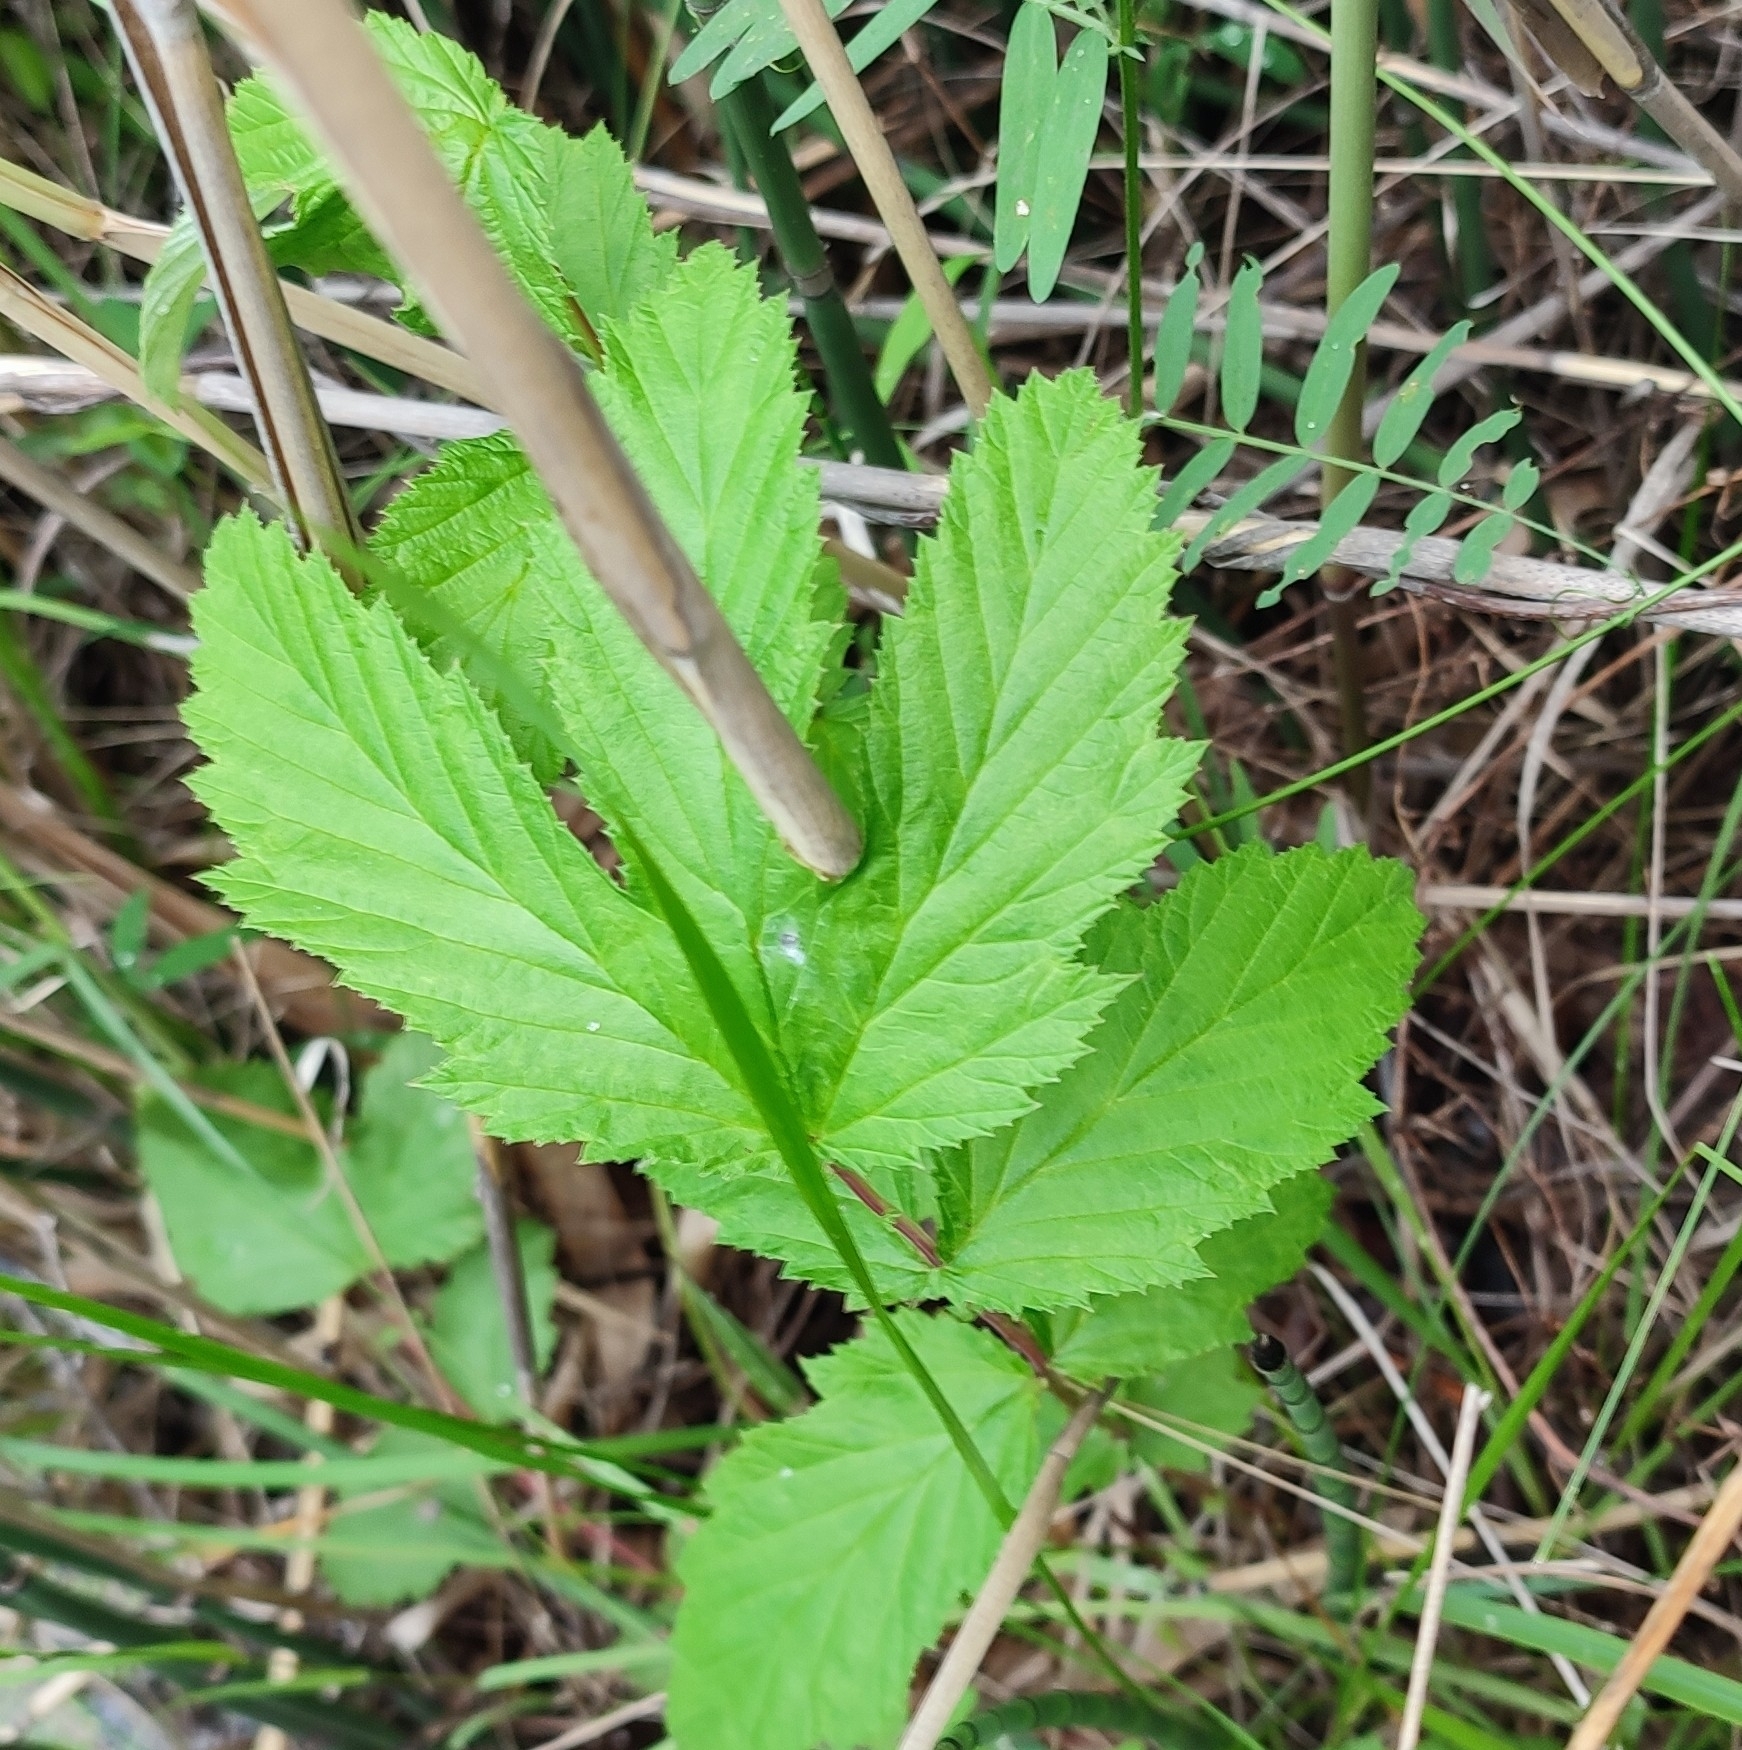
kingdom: Plantae
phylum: Tracheophyta
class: Magnoliopsida
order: Rosales
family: Rosaceae
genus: Filipendula
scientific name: Filipendula ulmaria
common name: Meadowsweet
